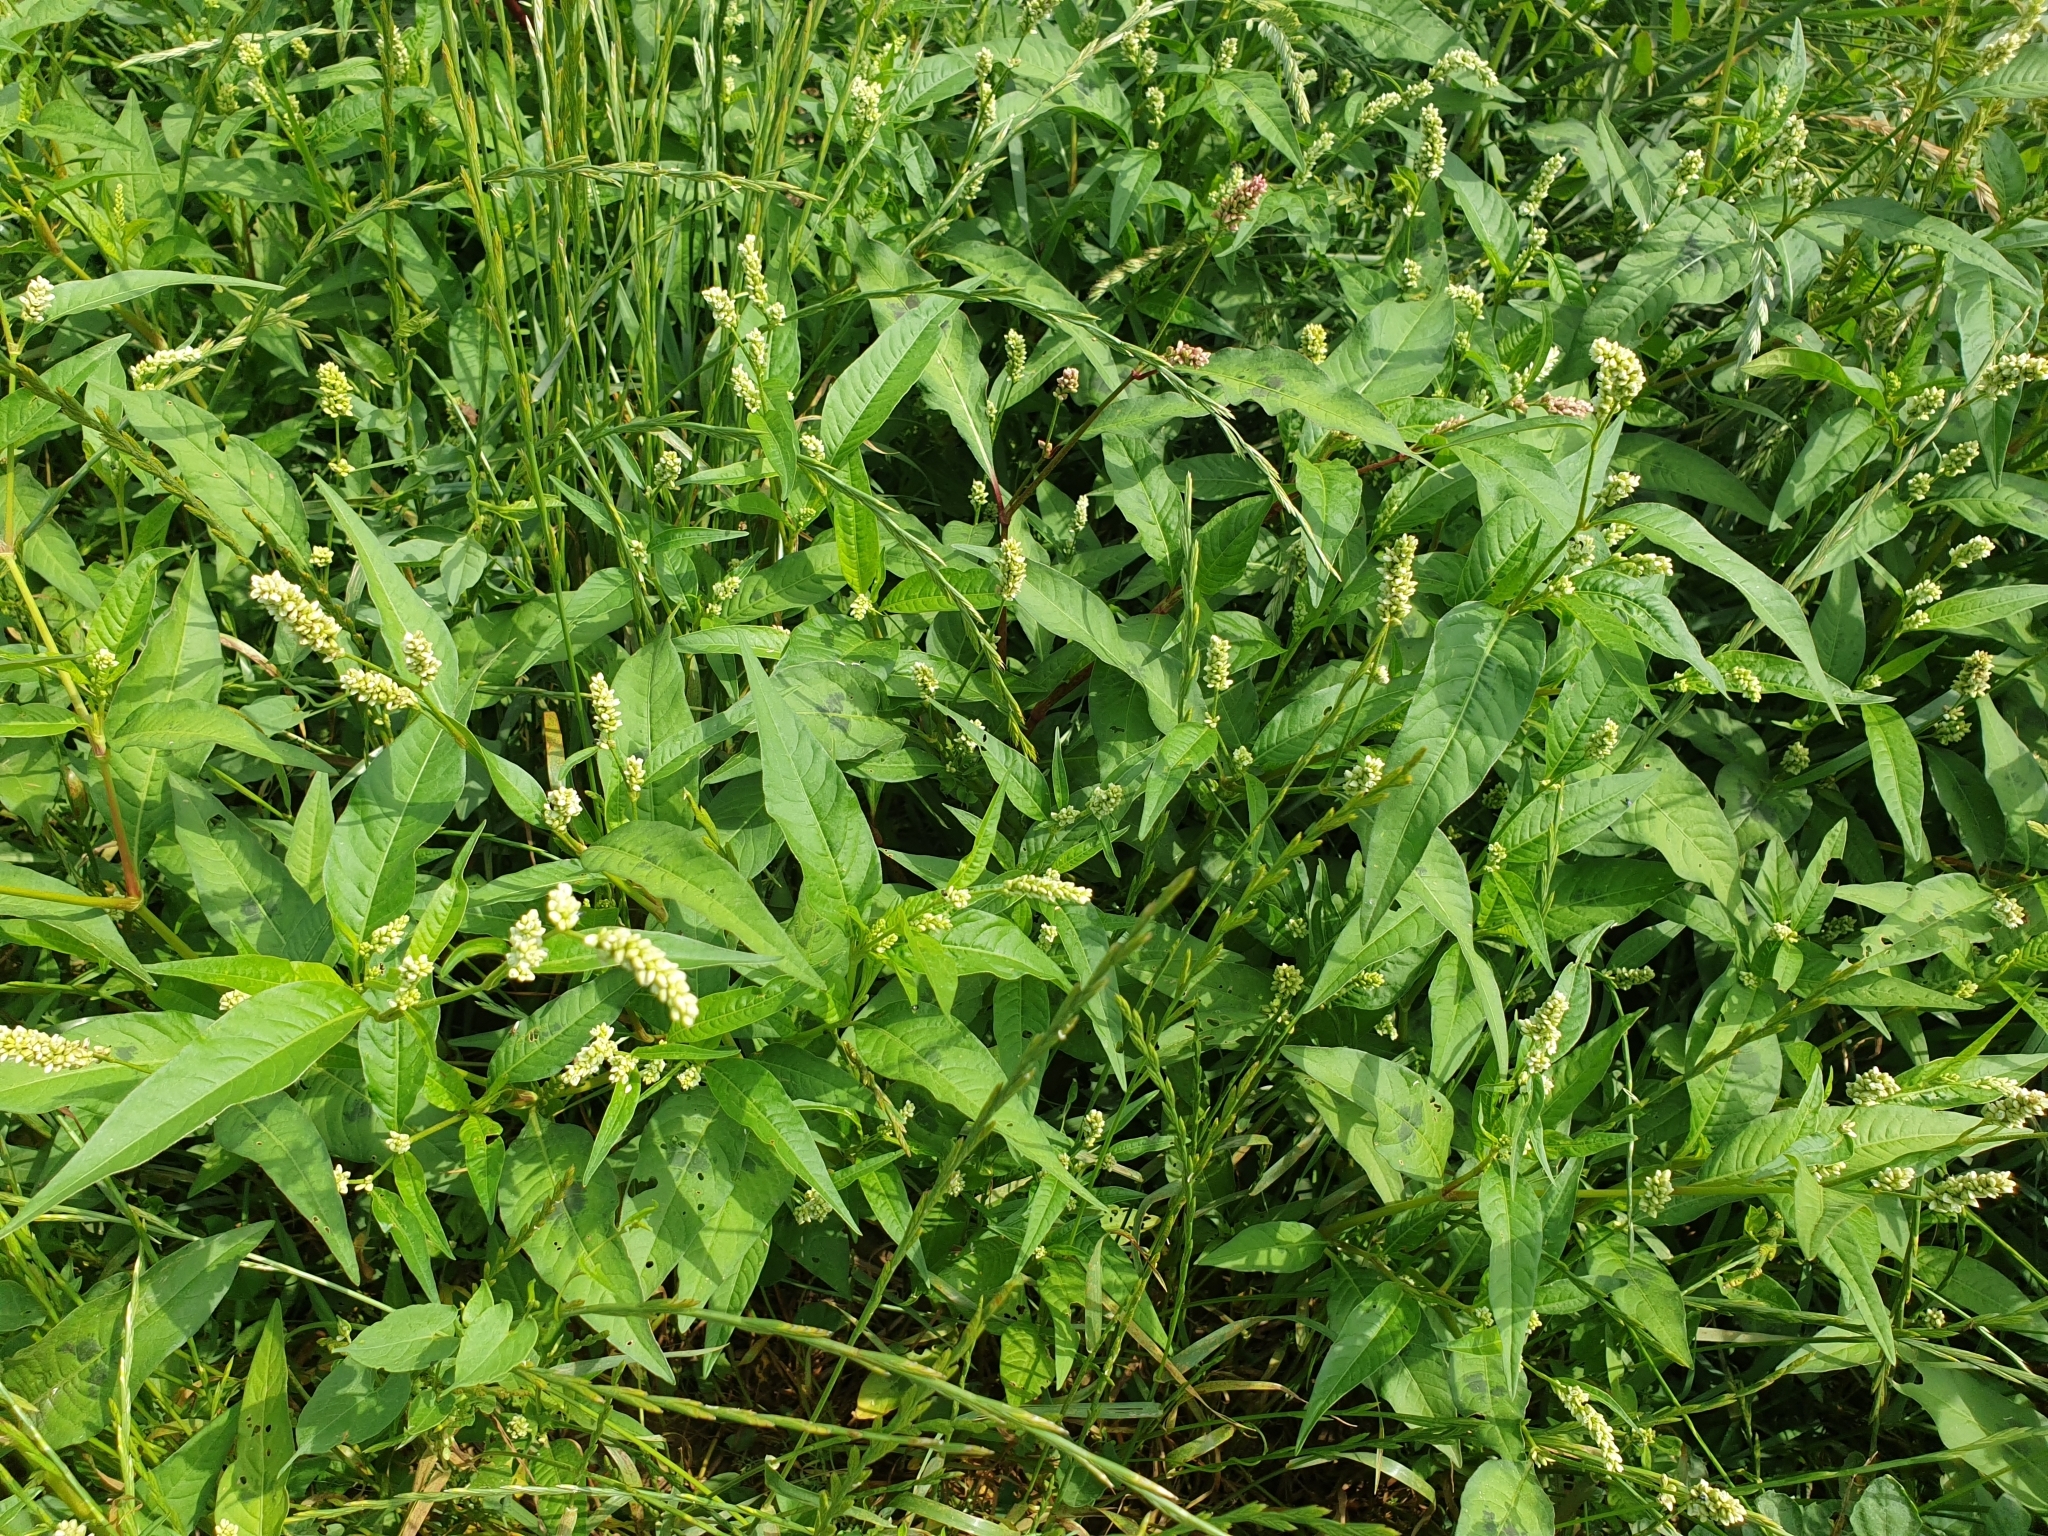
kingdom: Plantae
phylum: Tracheophyta
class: Magnoliopsida
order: Caryophyllales
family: Polygonaceae
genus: Persicaria
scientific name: Persicaria lanata
